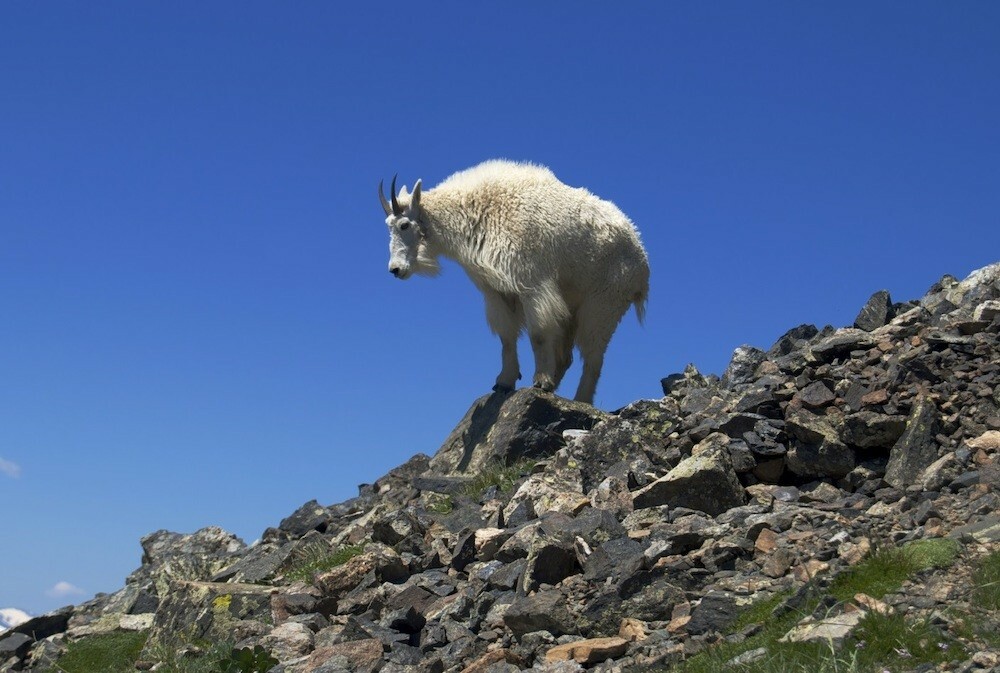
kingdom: Animalia
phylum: Chordata
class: Mammalia
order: Artiodactyla
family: Bovidae
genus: Oreamnos
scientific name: Oreamnos americanus
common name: Mountain goat
